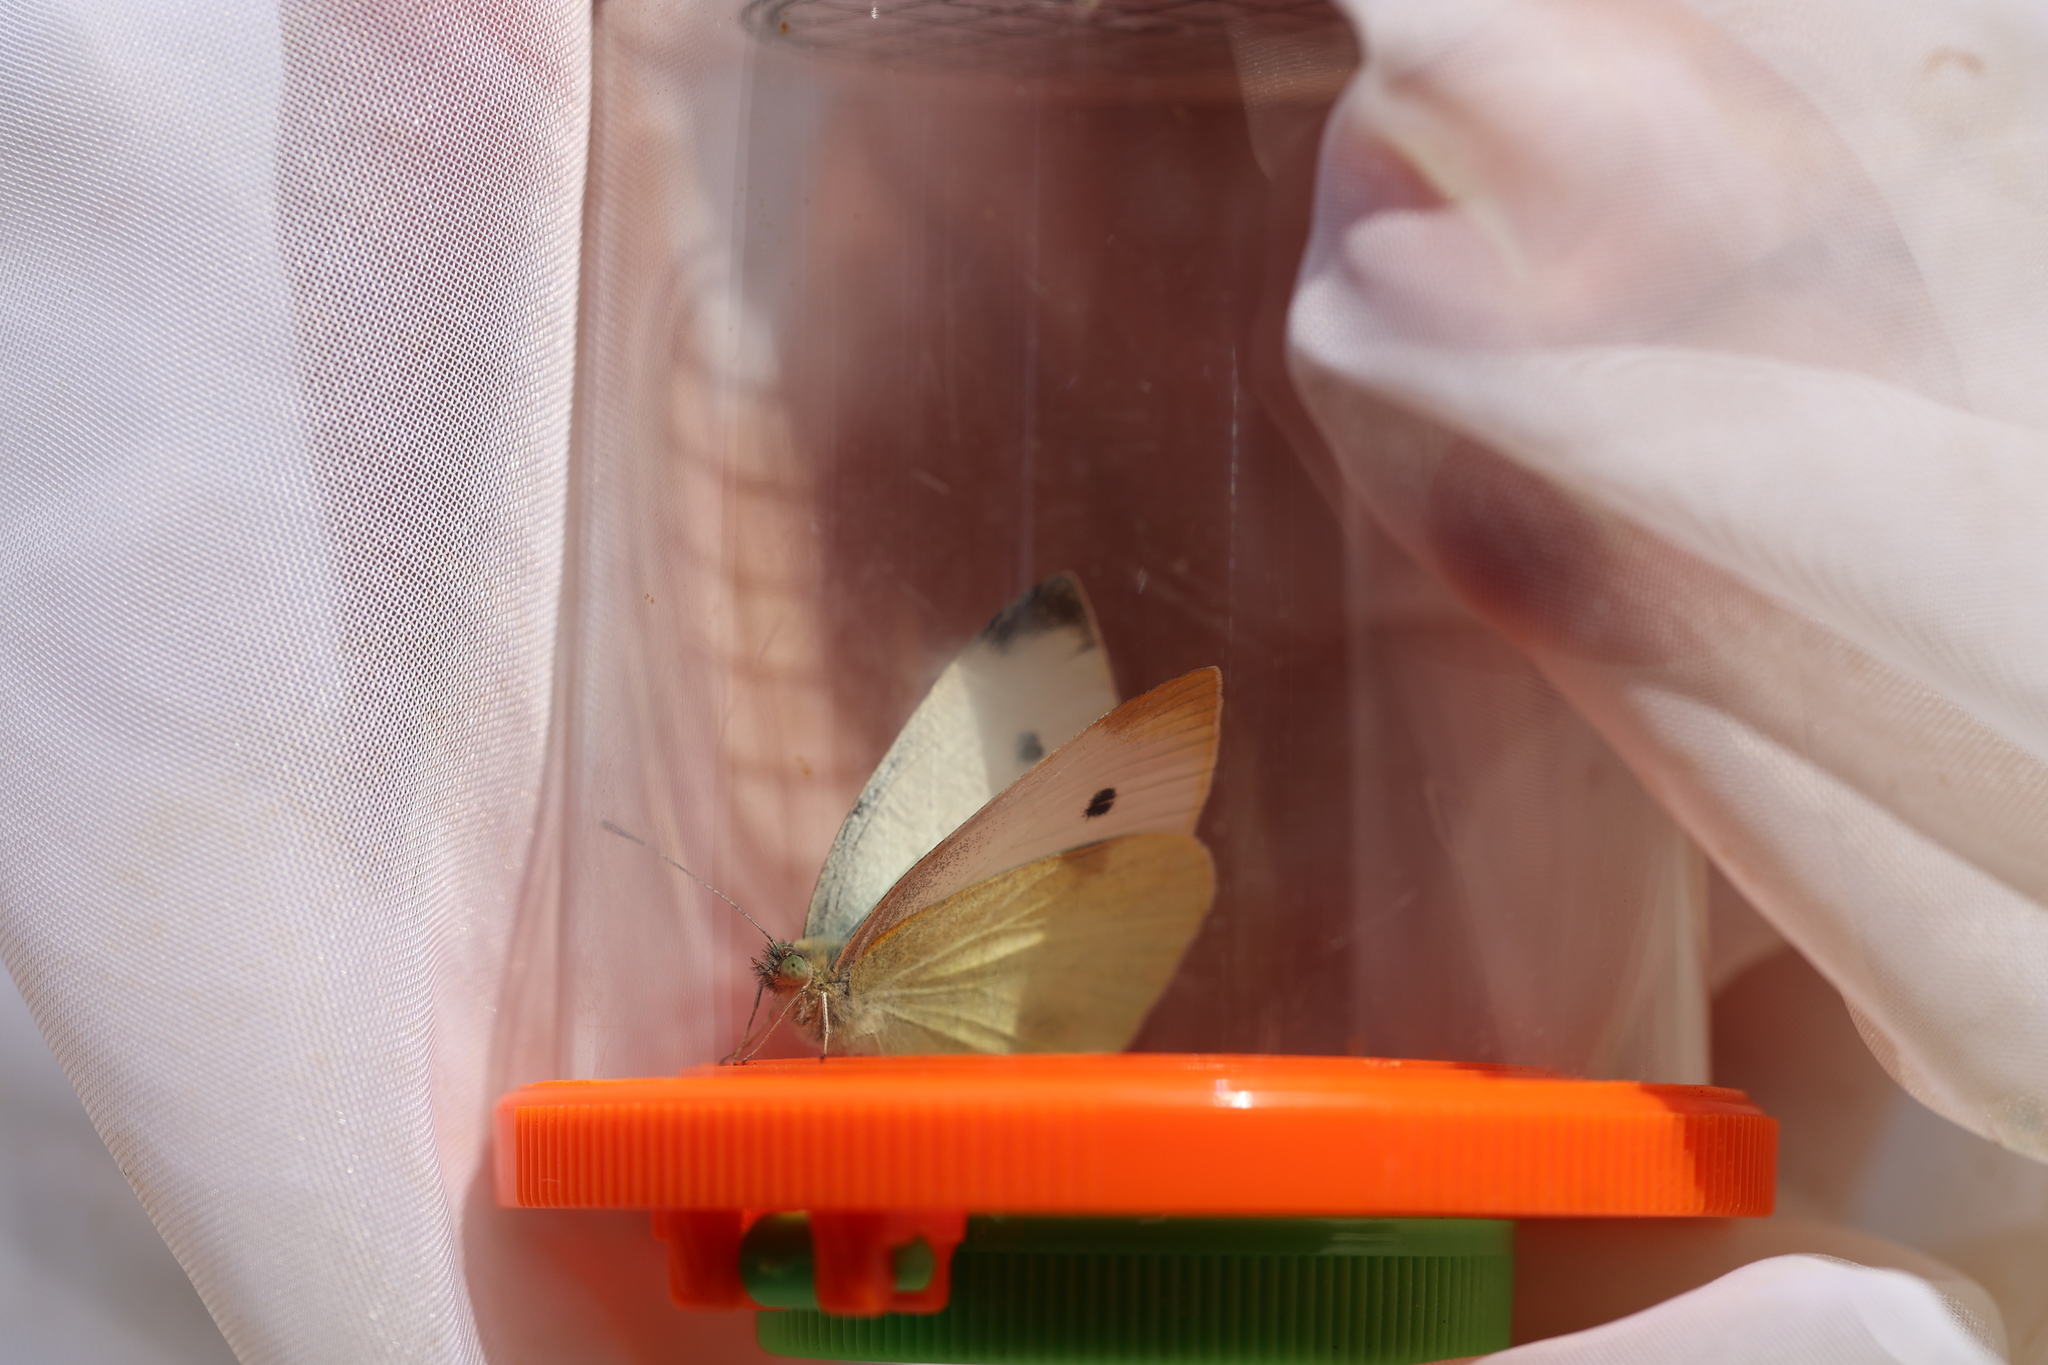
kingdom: Animalia
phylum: Arthropoda
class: Insecta
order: Lepidoptera
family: Pieridae
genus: Pieris
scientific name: Pieris rapae
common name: Small white
